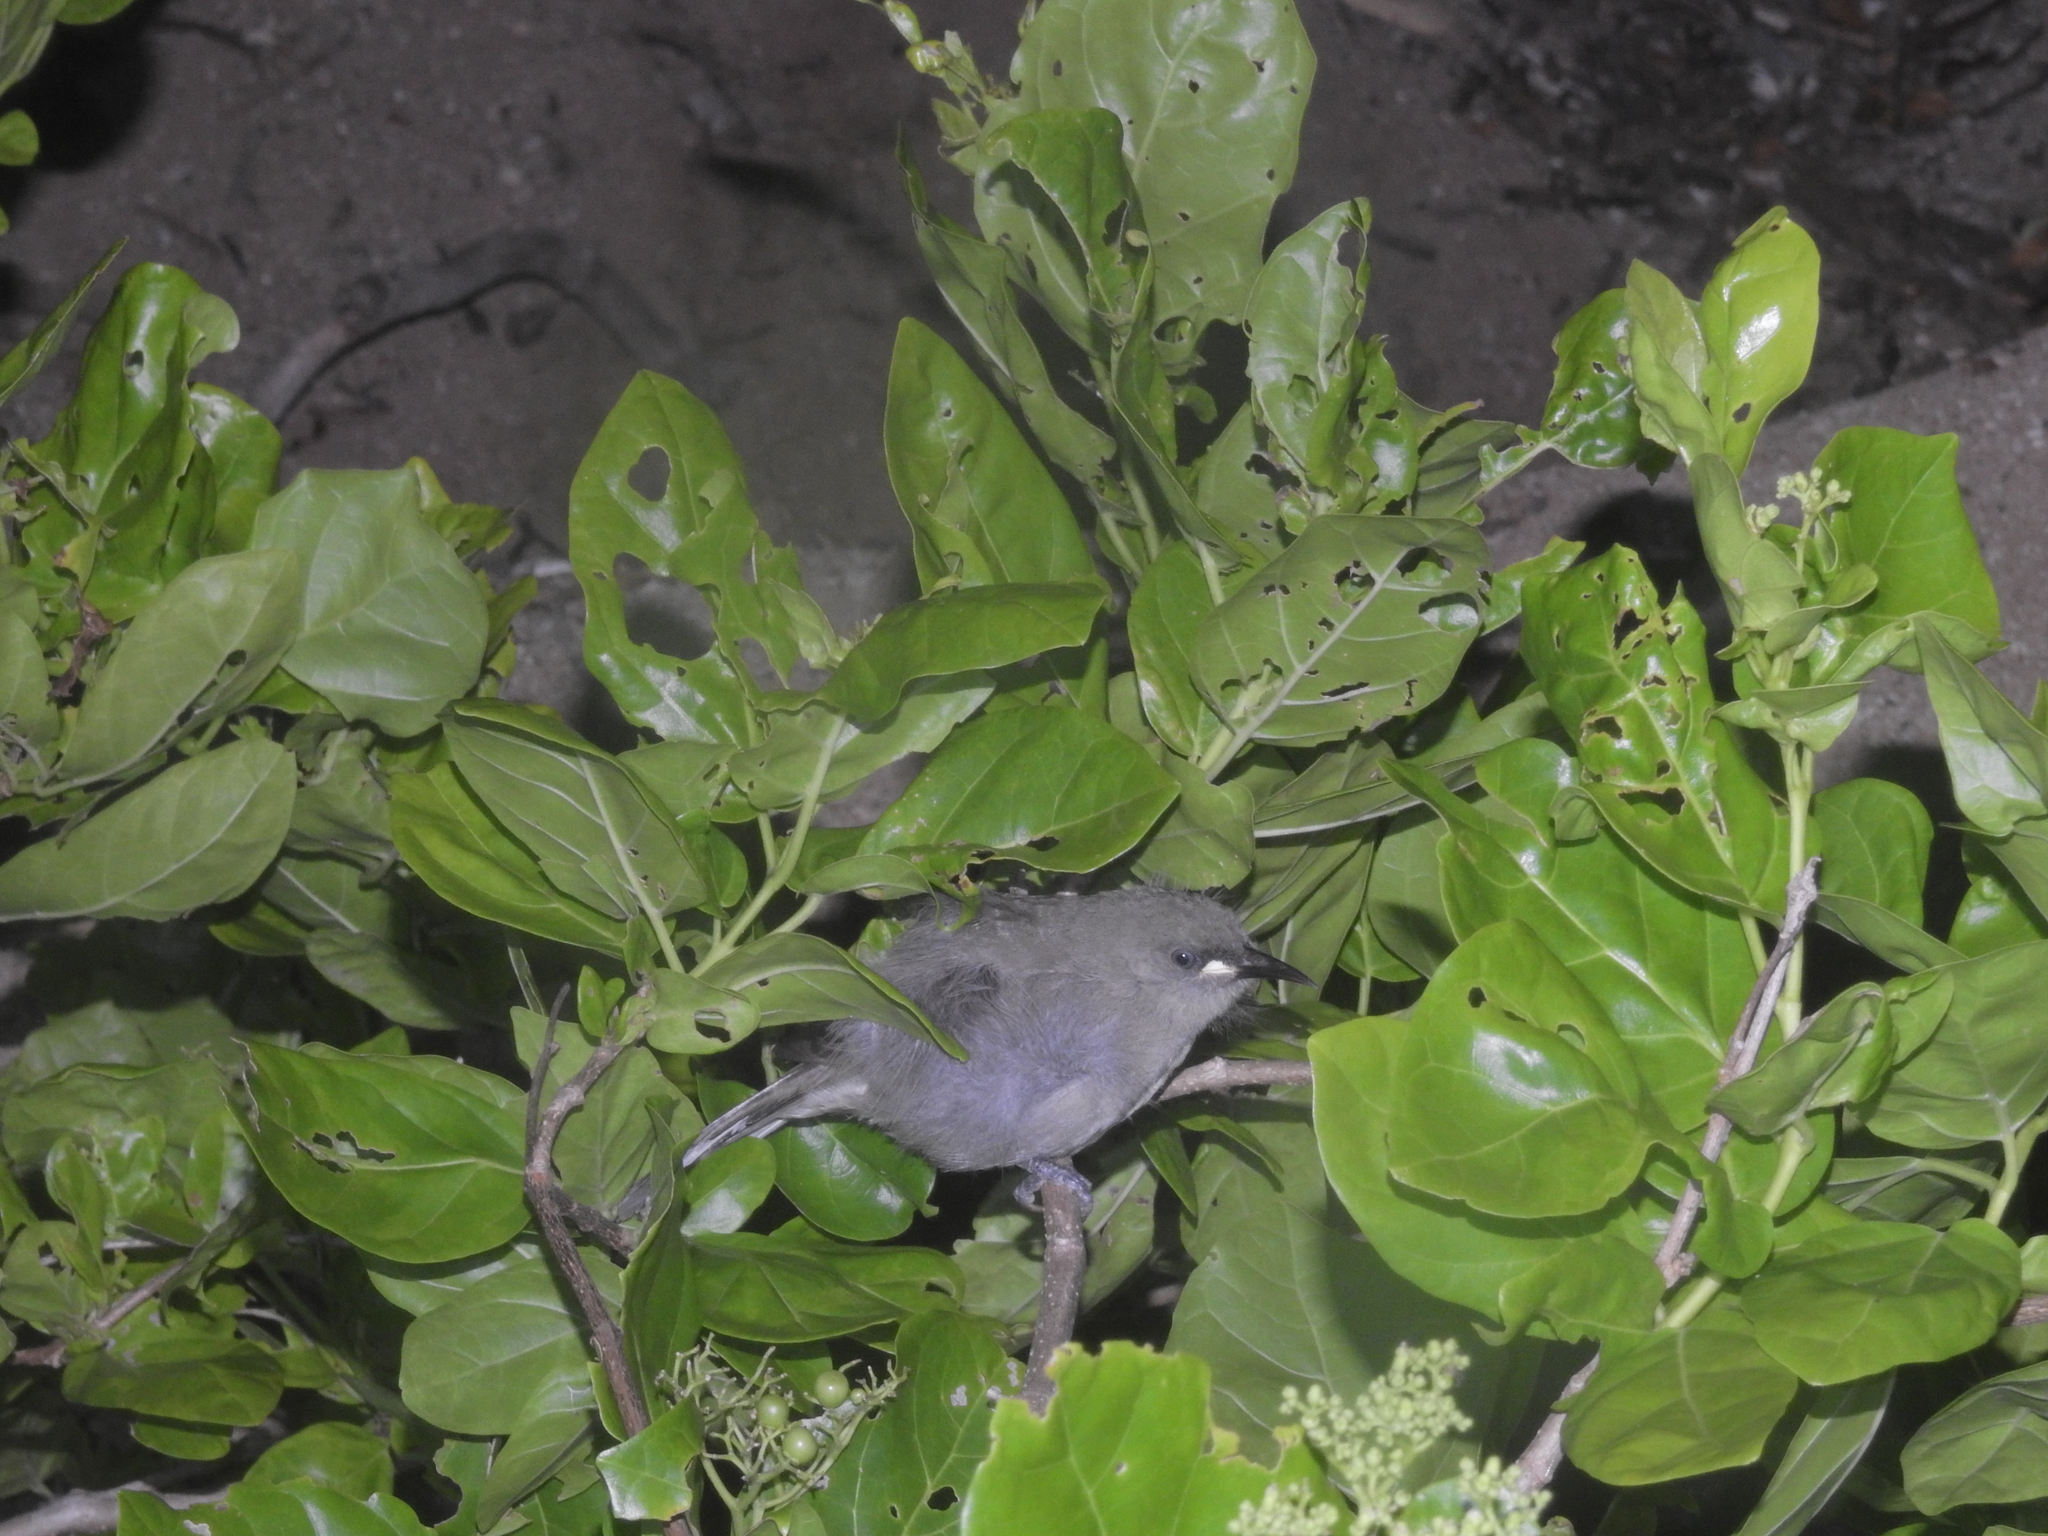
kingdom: Animalia
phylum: Chordata
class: Aves
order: Passeriformes
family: Meliphagidae
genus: Stomiopera
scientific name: Stomiopera unicolor
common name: White-gaped honeyeater
